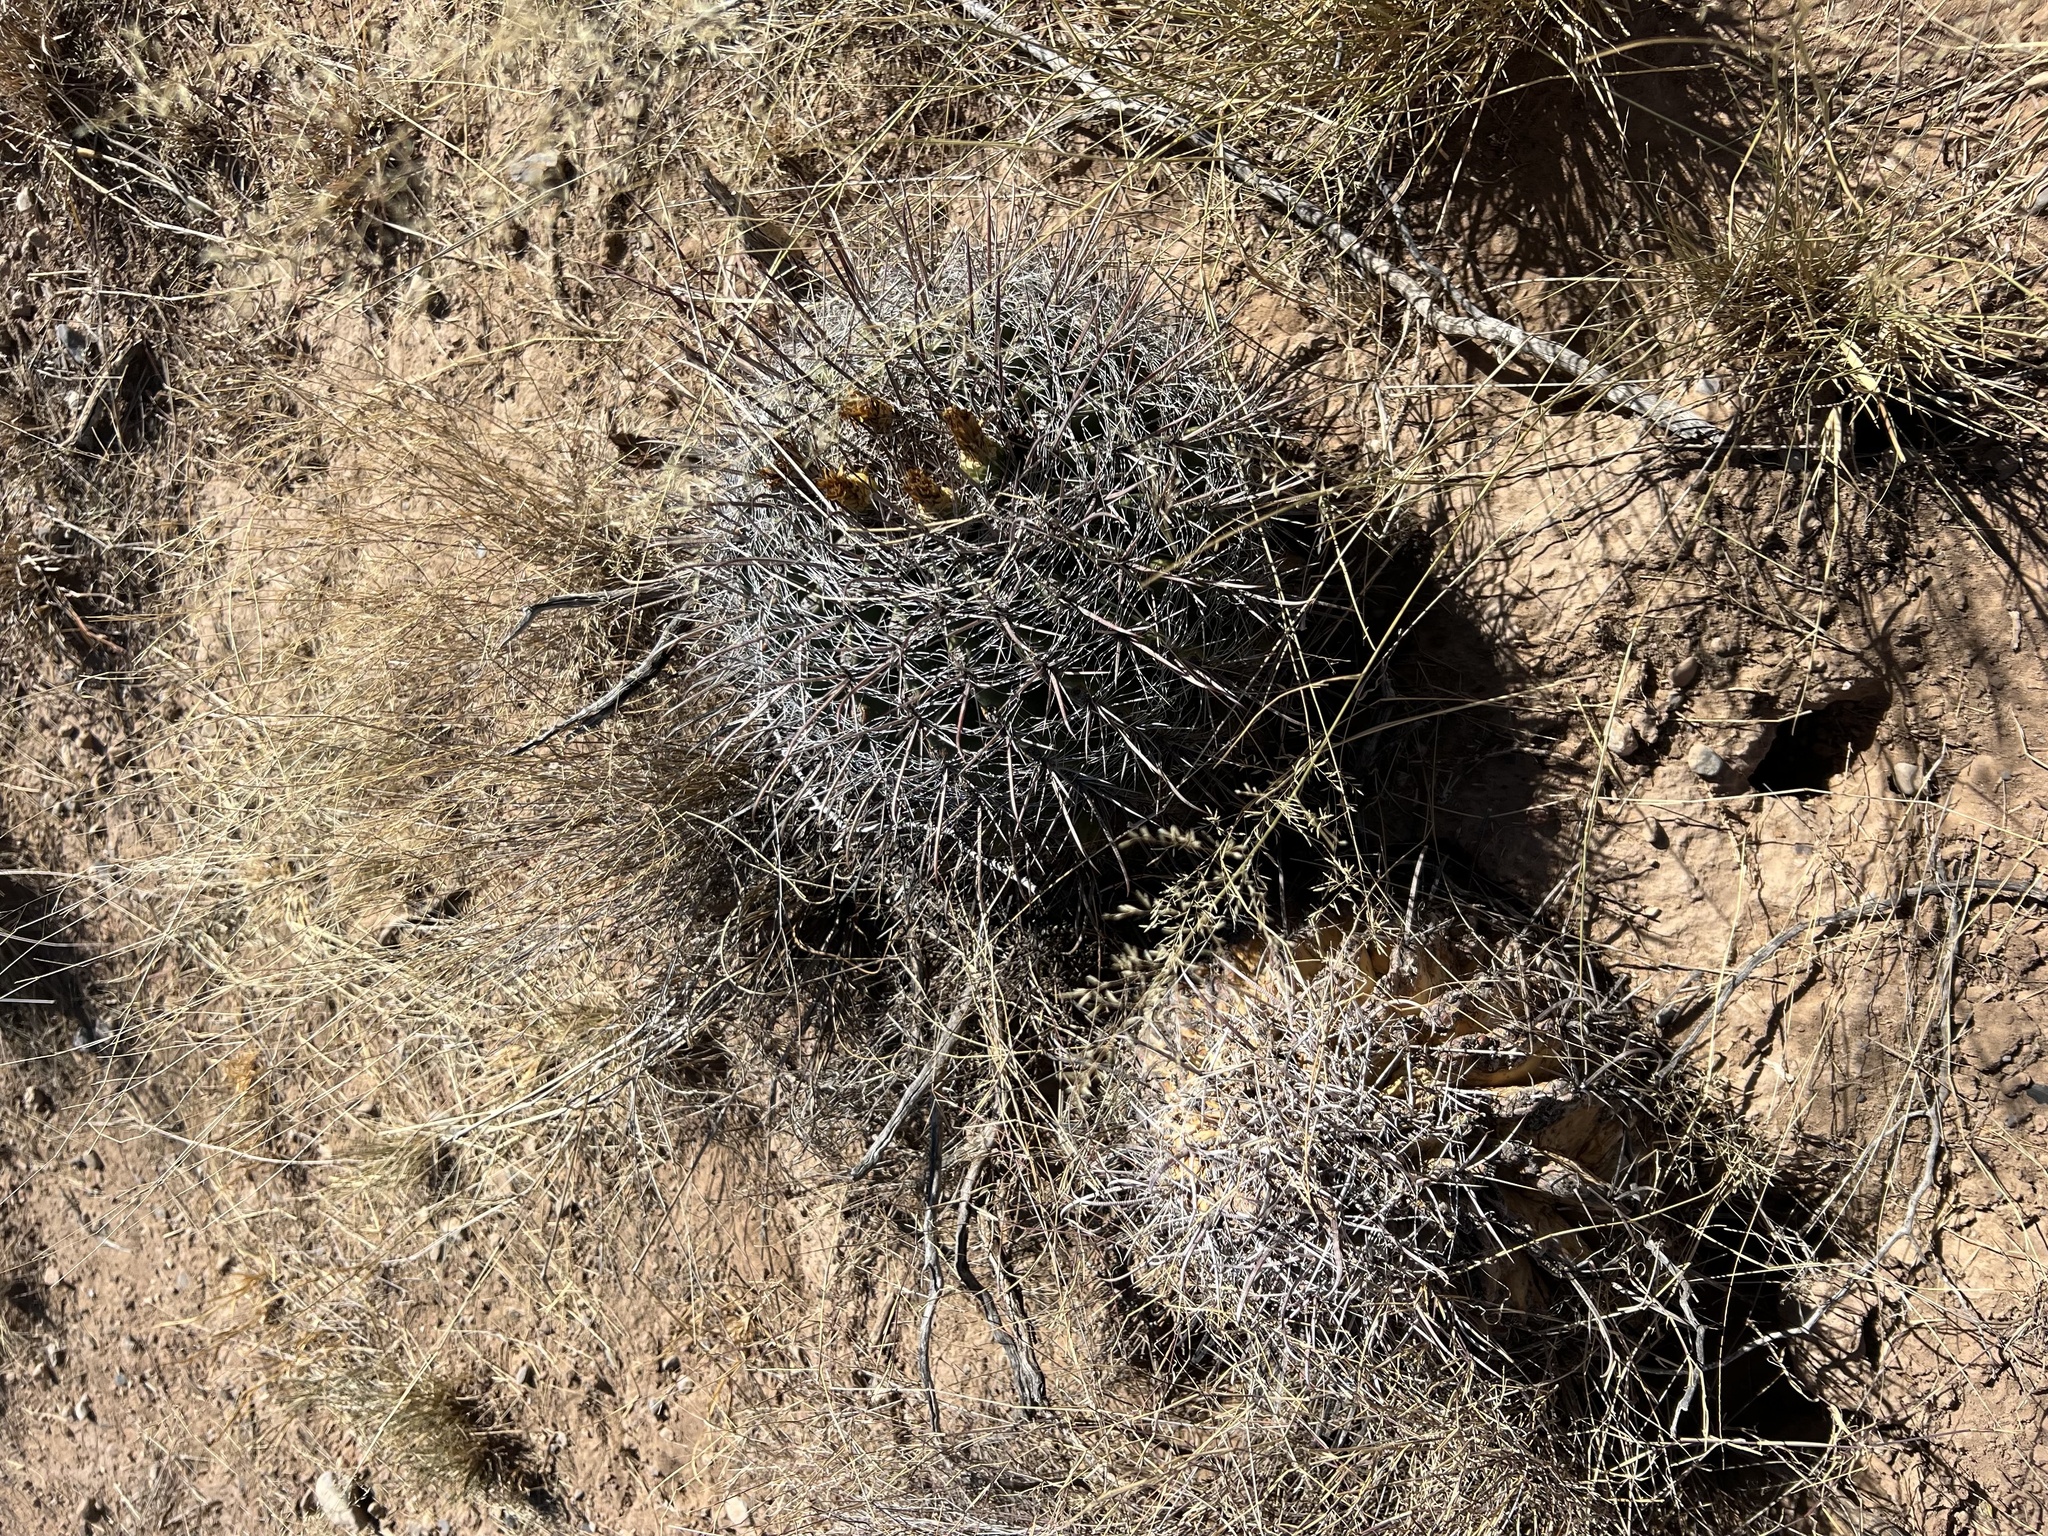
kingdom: Plantae
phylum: Tracheophyta
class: Magnoliopsida
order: Caryophyllales
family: Cactaceae
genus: Ferocactus
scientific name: Ferocactus wislizeni
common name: Candy barrel cactus
